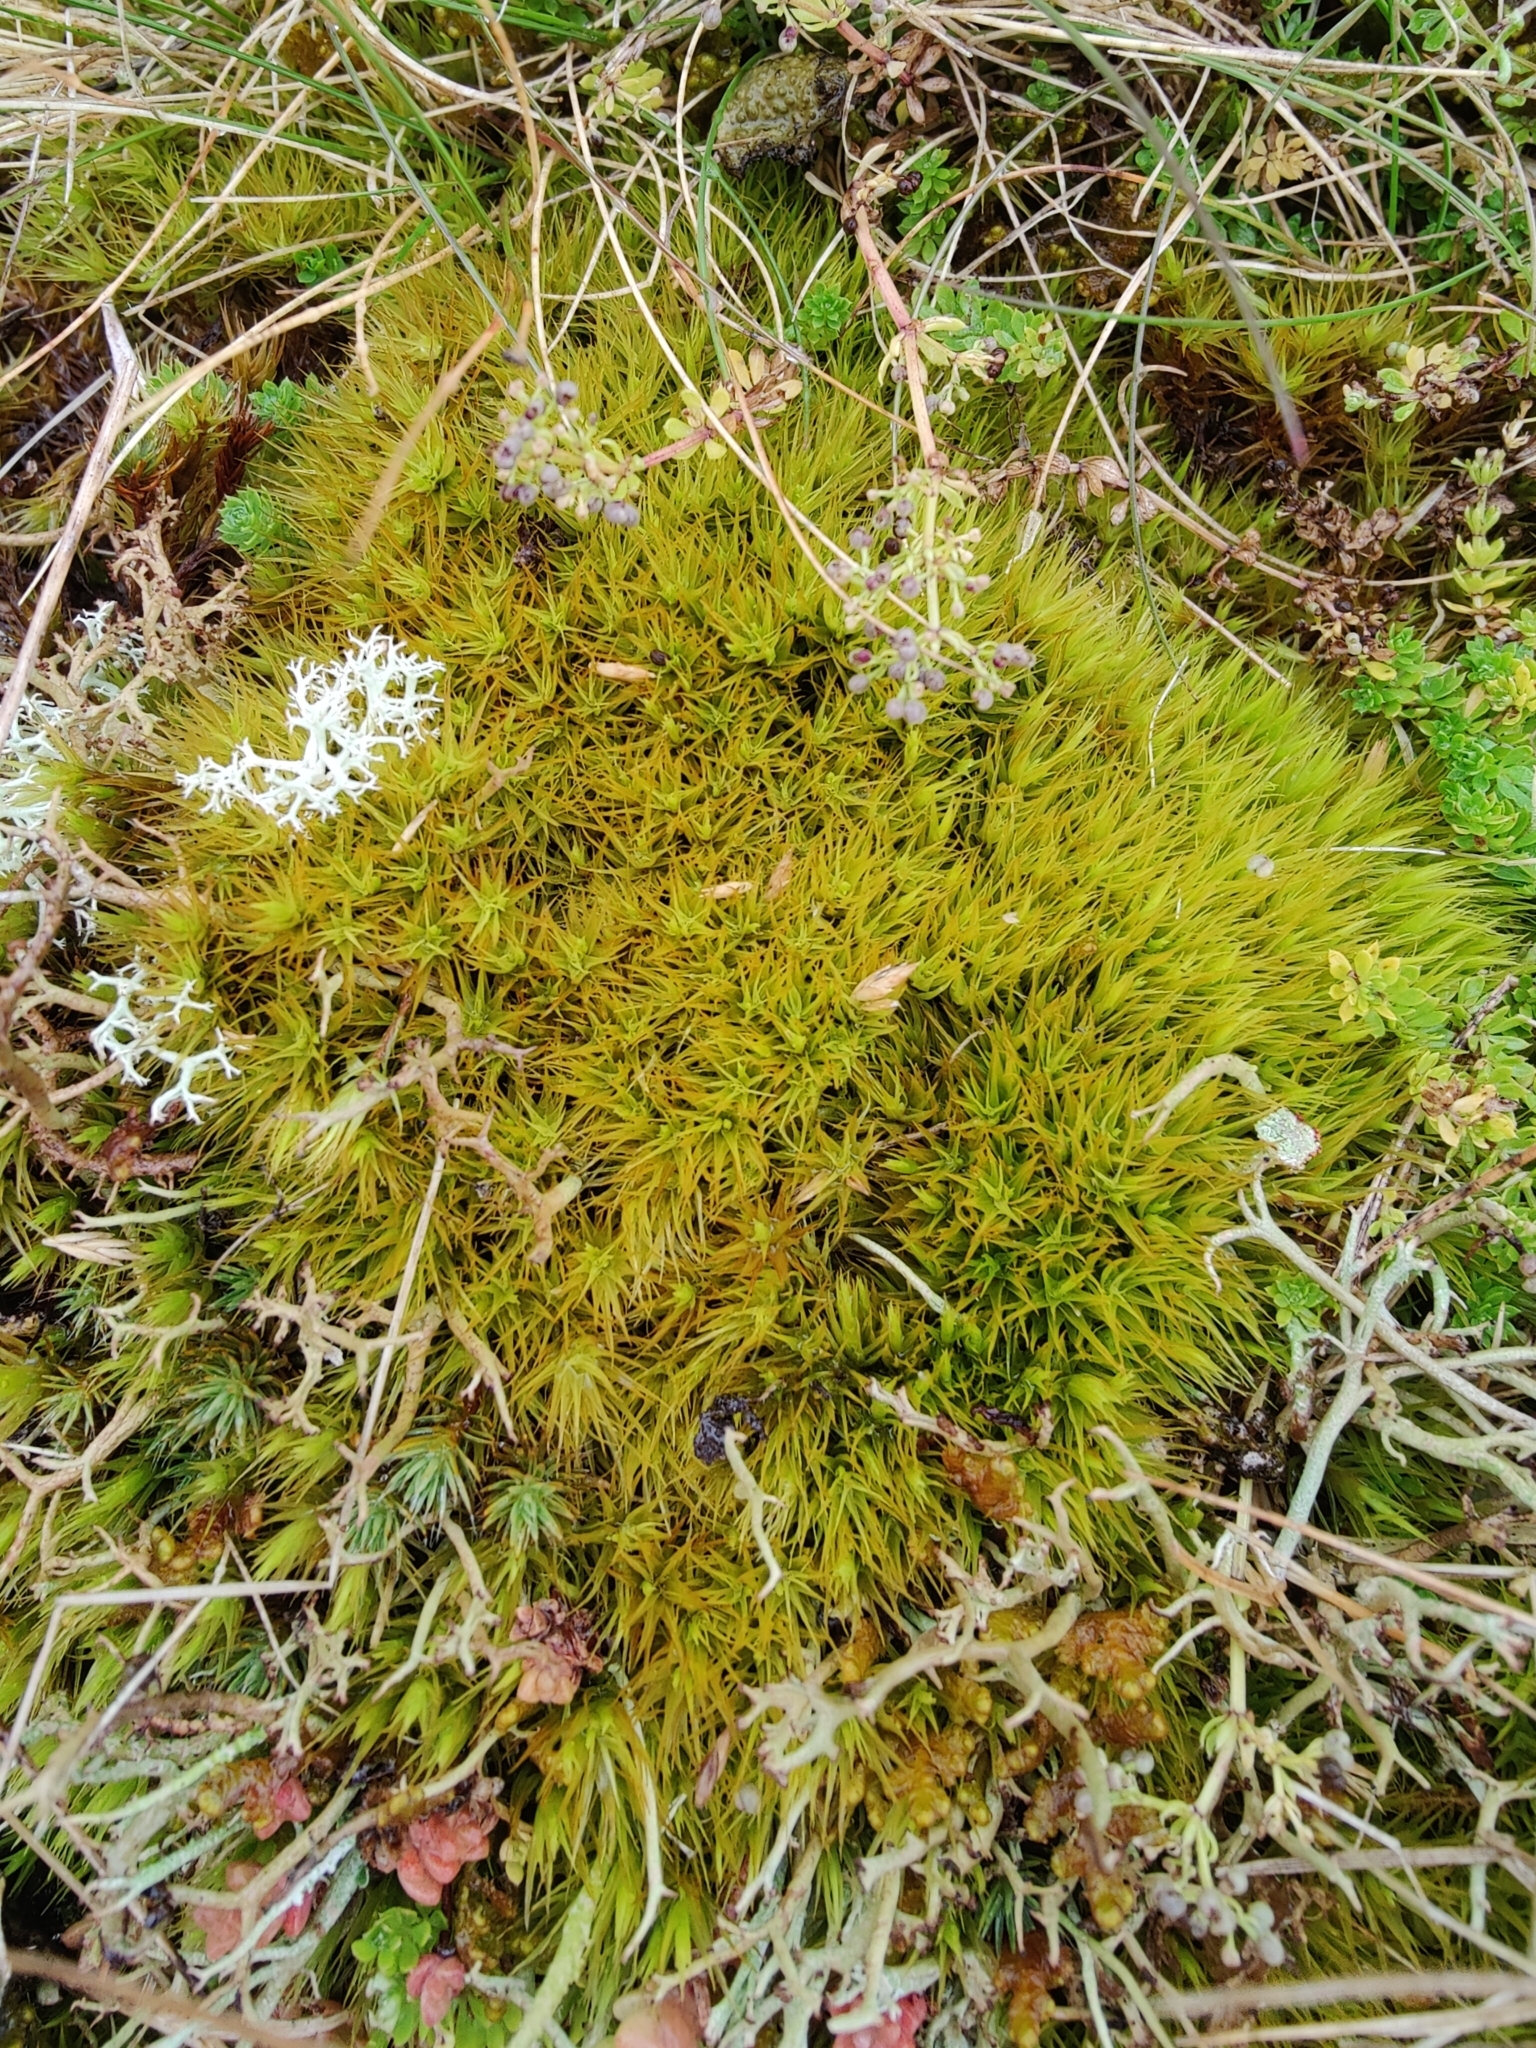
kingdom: Plantae
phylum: Bryophyta
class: Bryopsida
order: Dicranales
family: Dicranaceae
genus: Dicranum
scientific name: Dicranum scoparium
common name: Broom fork-moss
